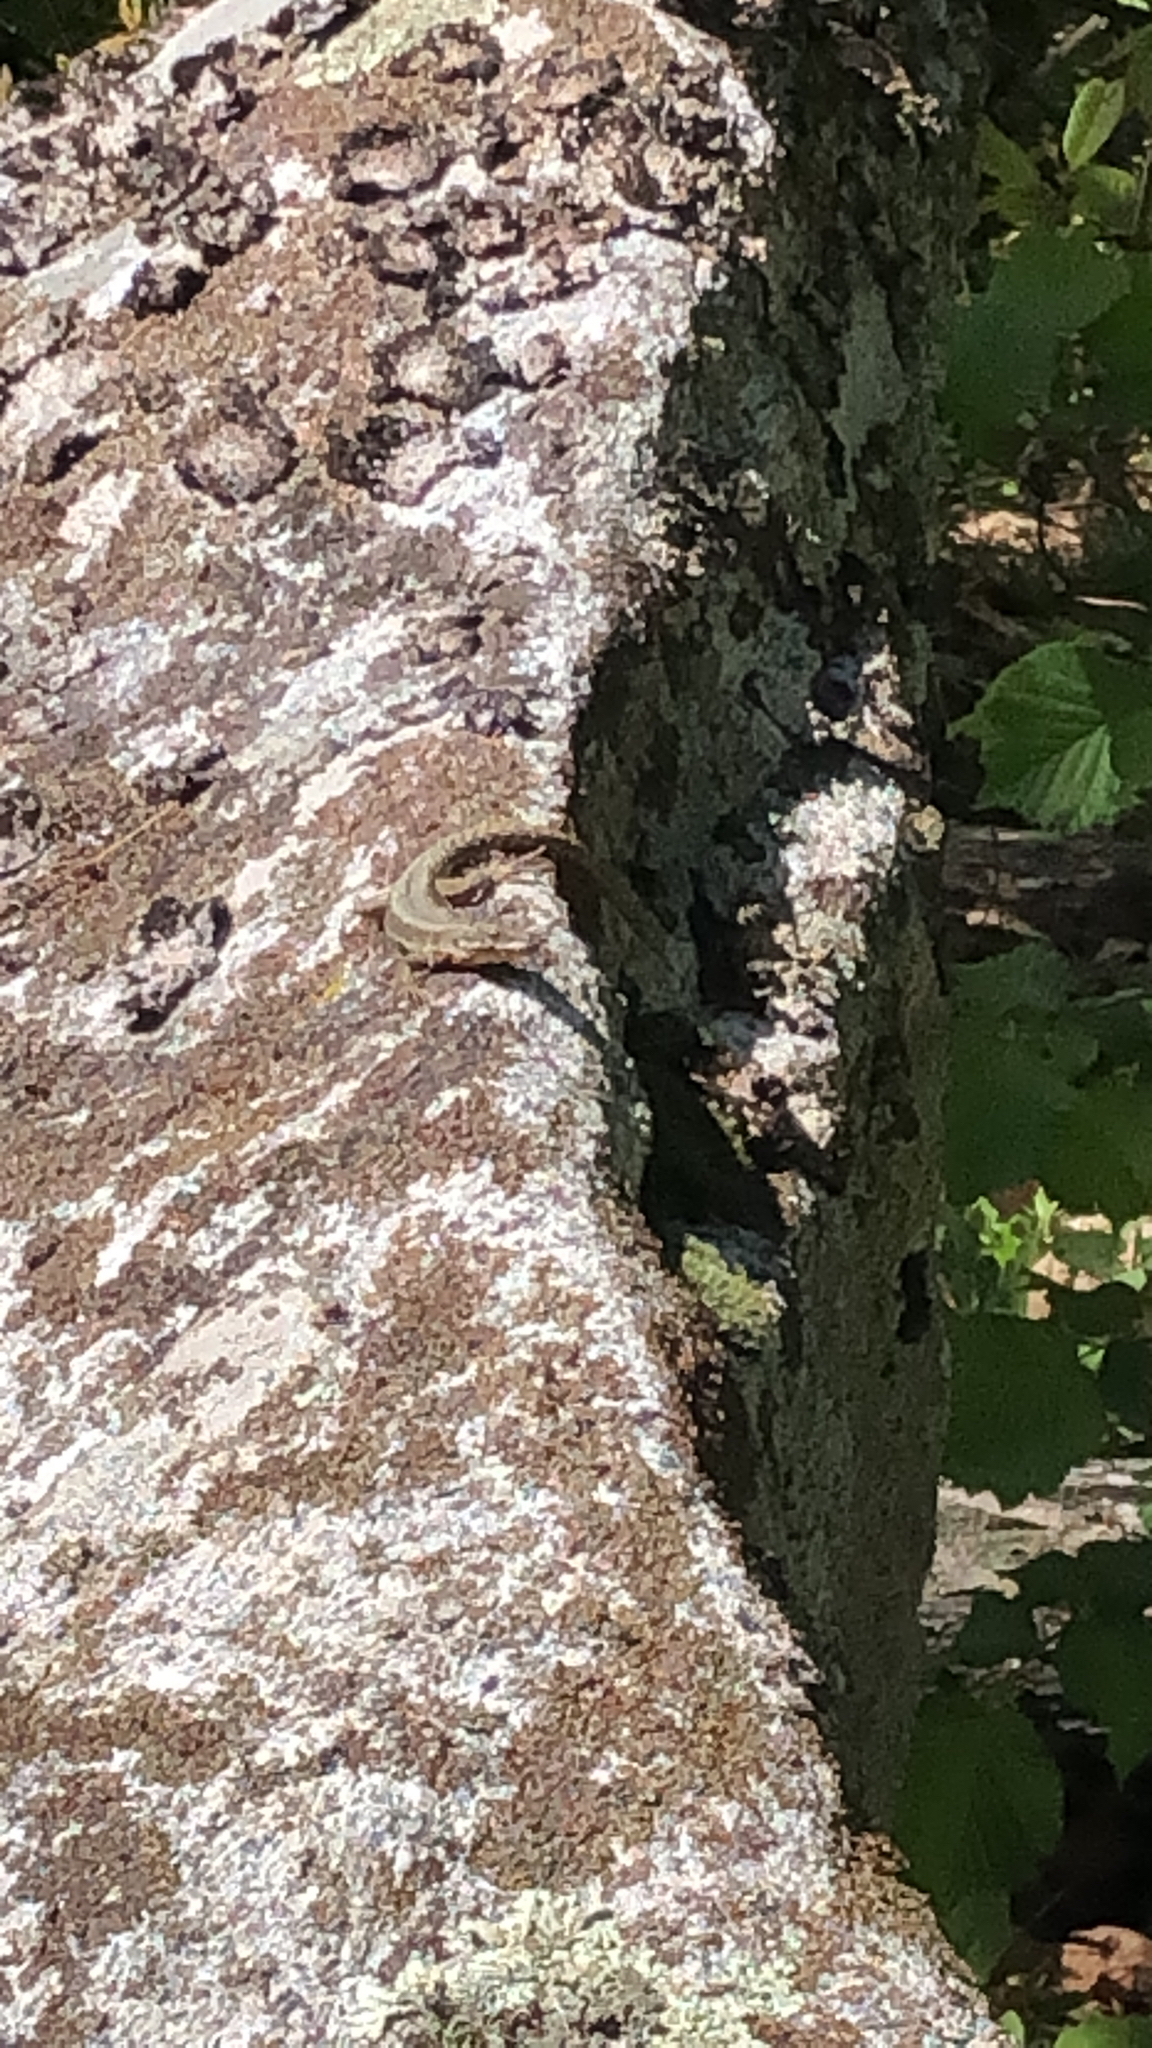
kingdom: Animalia
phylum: Chordata
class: Squamata
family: Lacertidae
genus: Podarcis
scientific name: Podarcis muralis
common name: Common wall lizard
